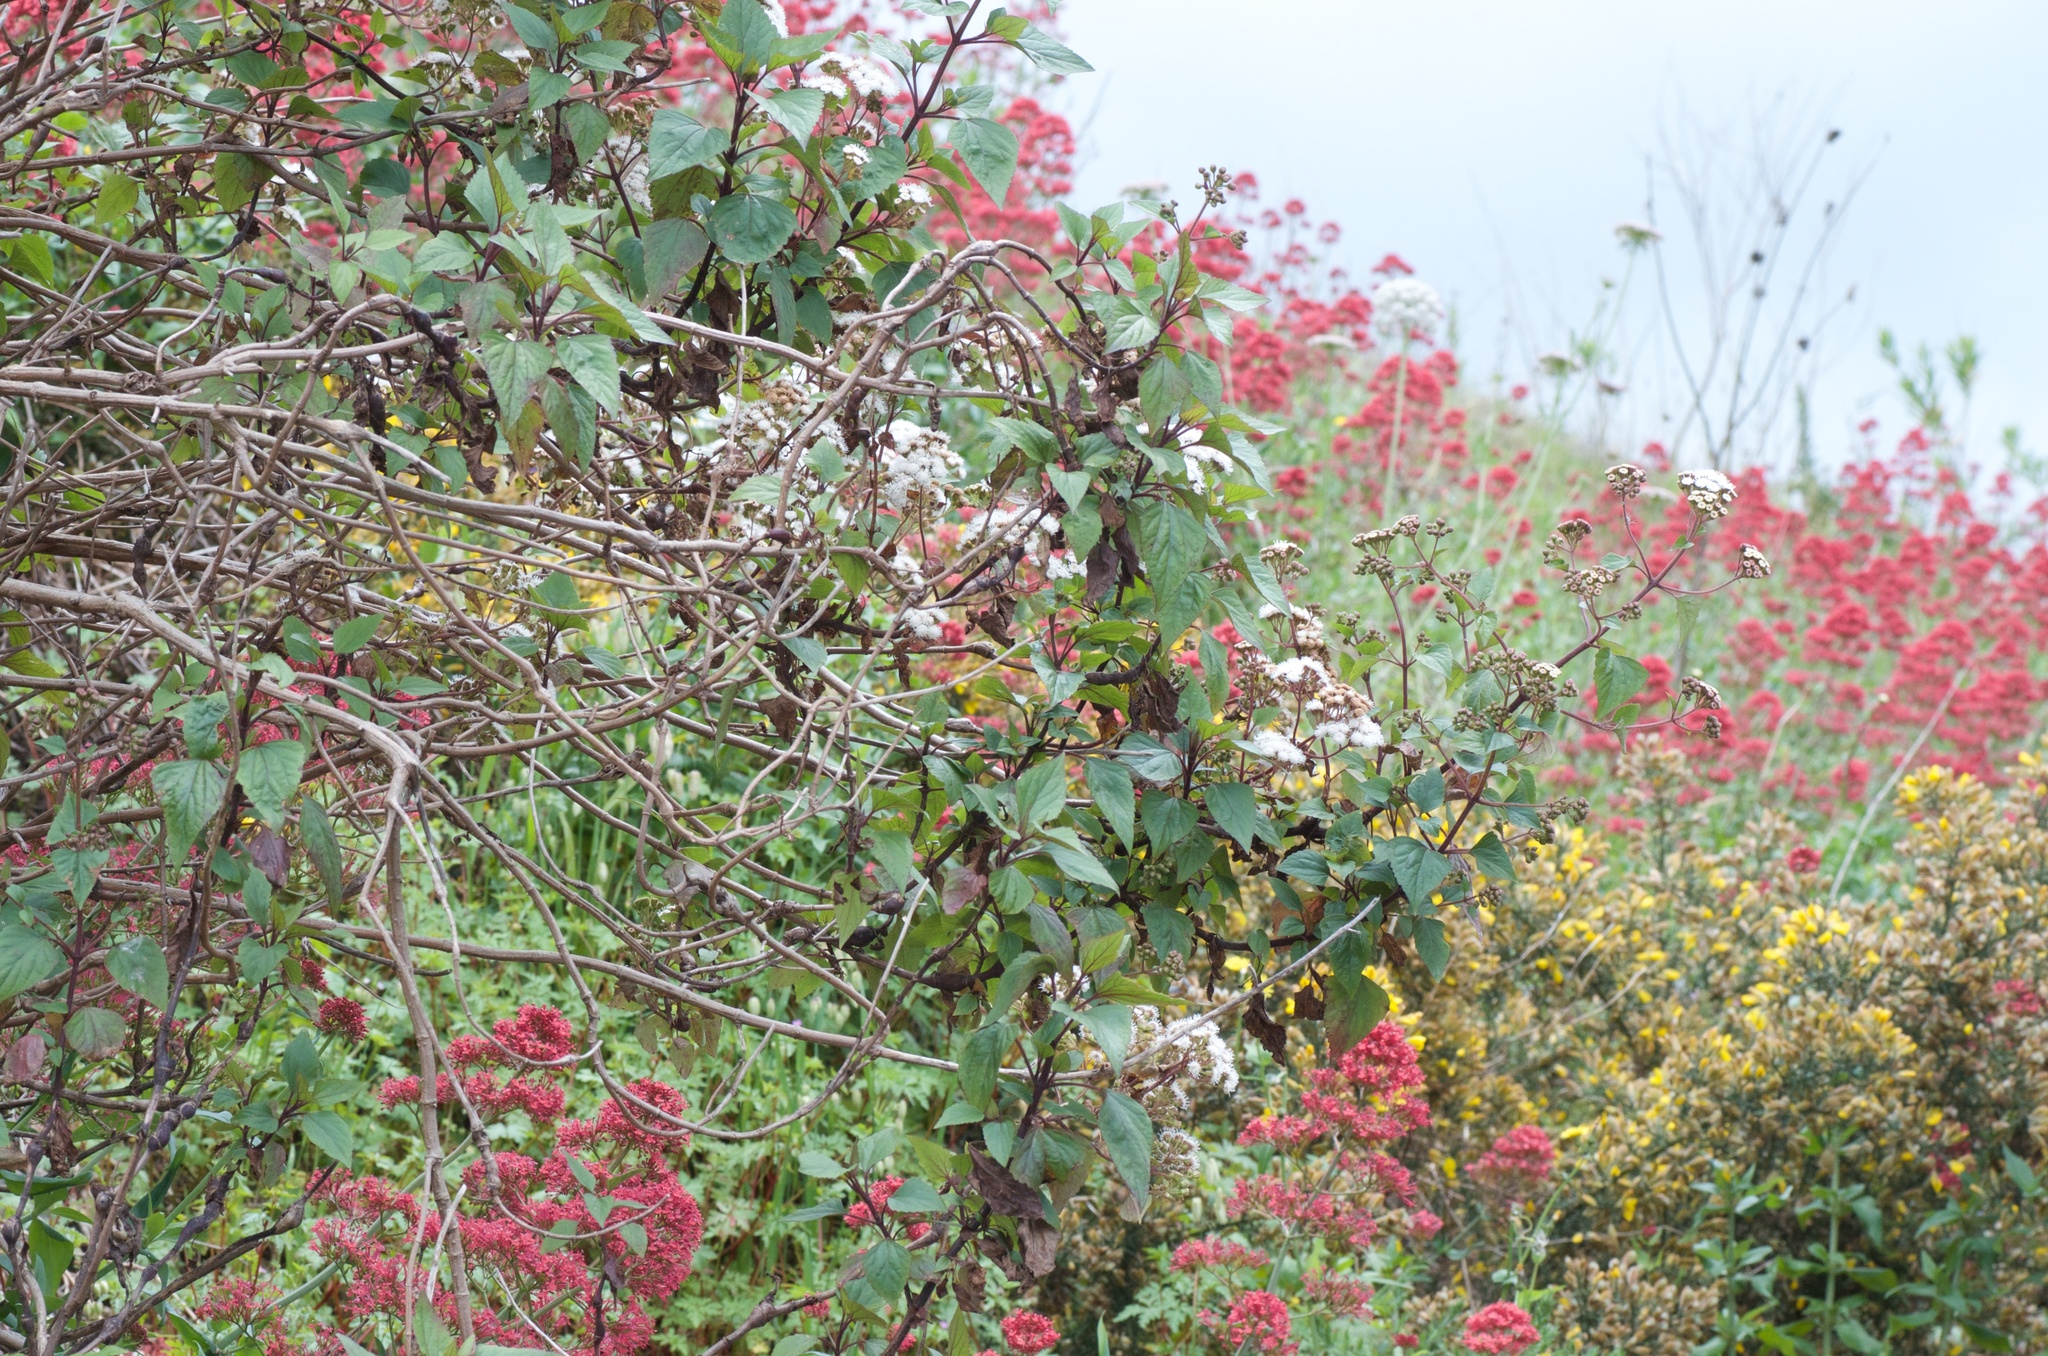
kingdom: Plantae
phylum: Tracheophyta
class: Magnoliopsida
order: Asterales
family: Asteraceae
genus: Ageratina
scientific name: Ageratina adenophora
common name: Sticky snakeroot
